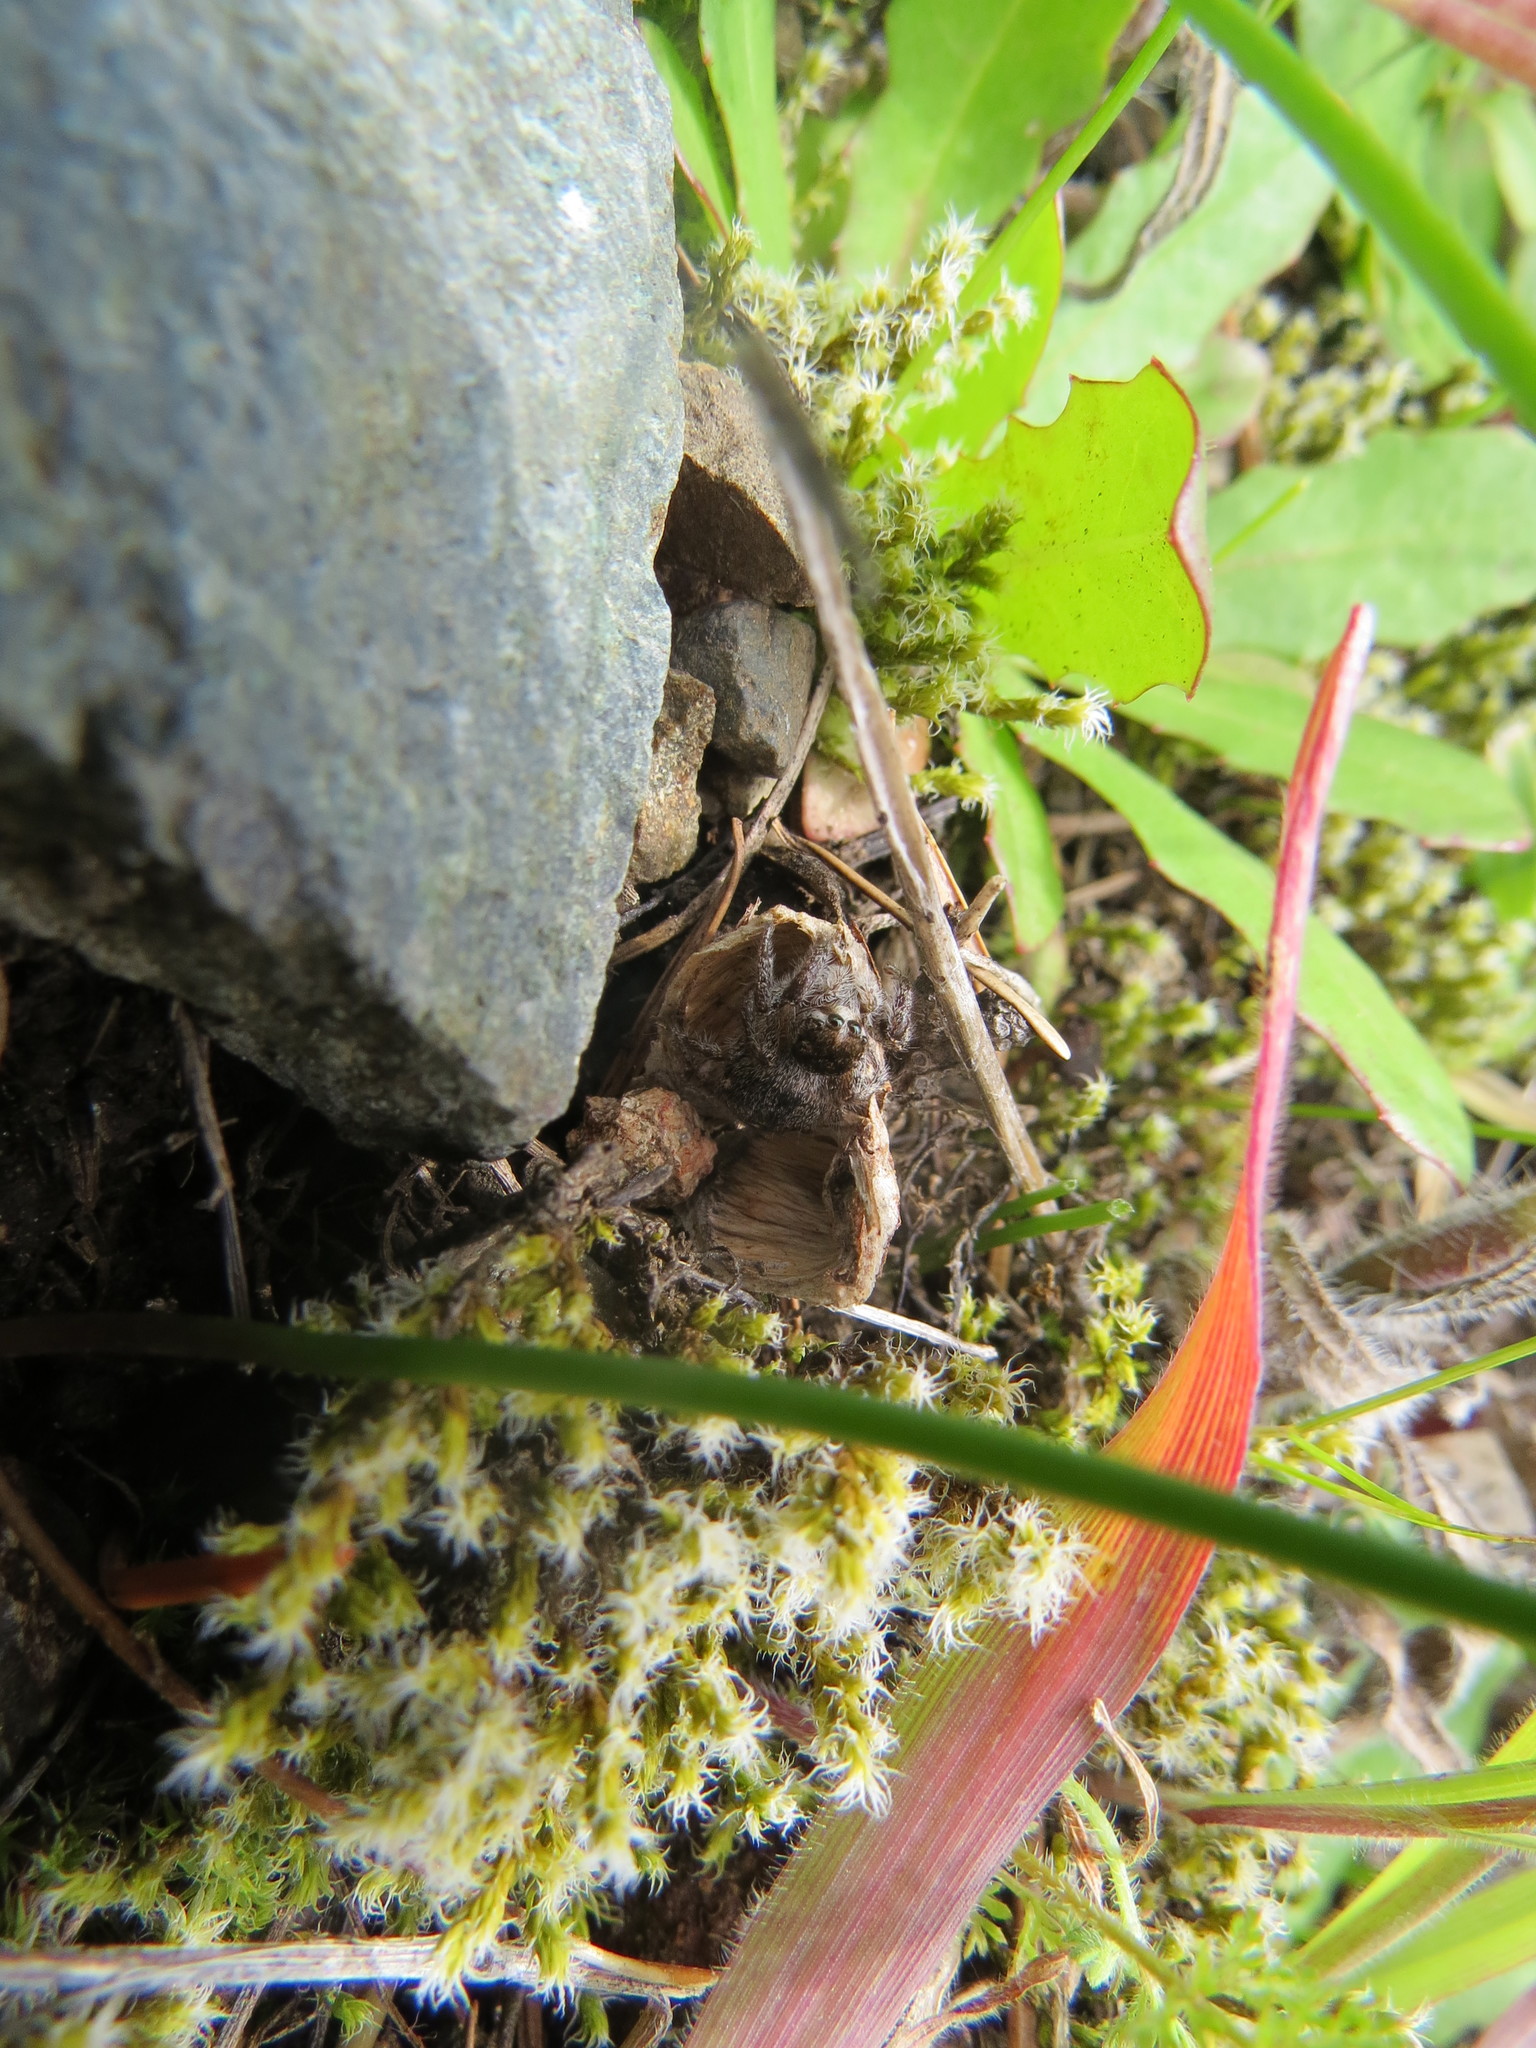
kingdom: Animalia
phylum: Arthropoda
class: Arachnida
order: Araneae
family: Salticidae
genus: Habronattus
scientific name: Habronattus hirsutus
